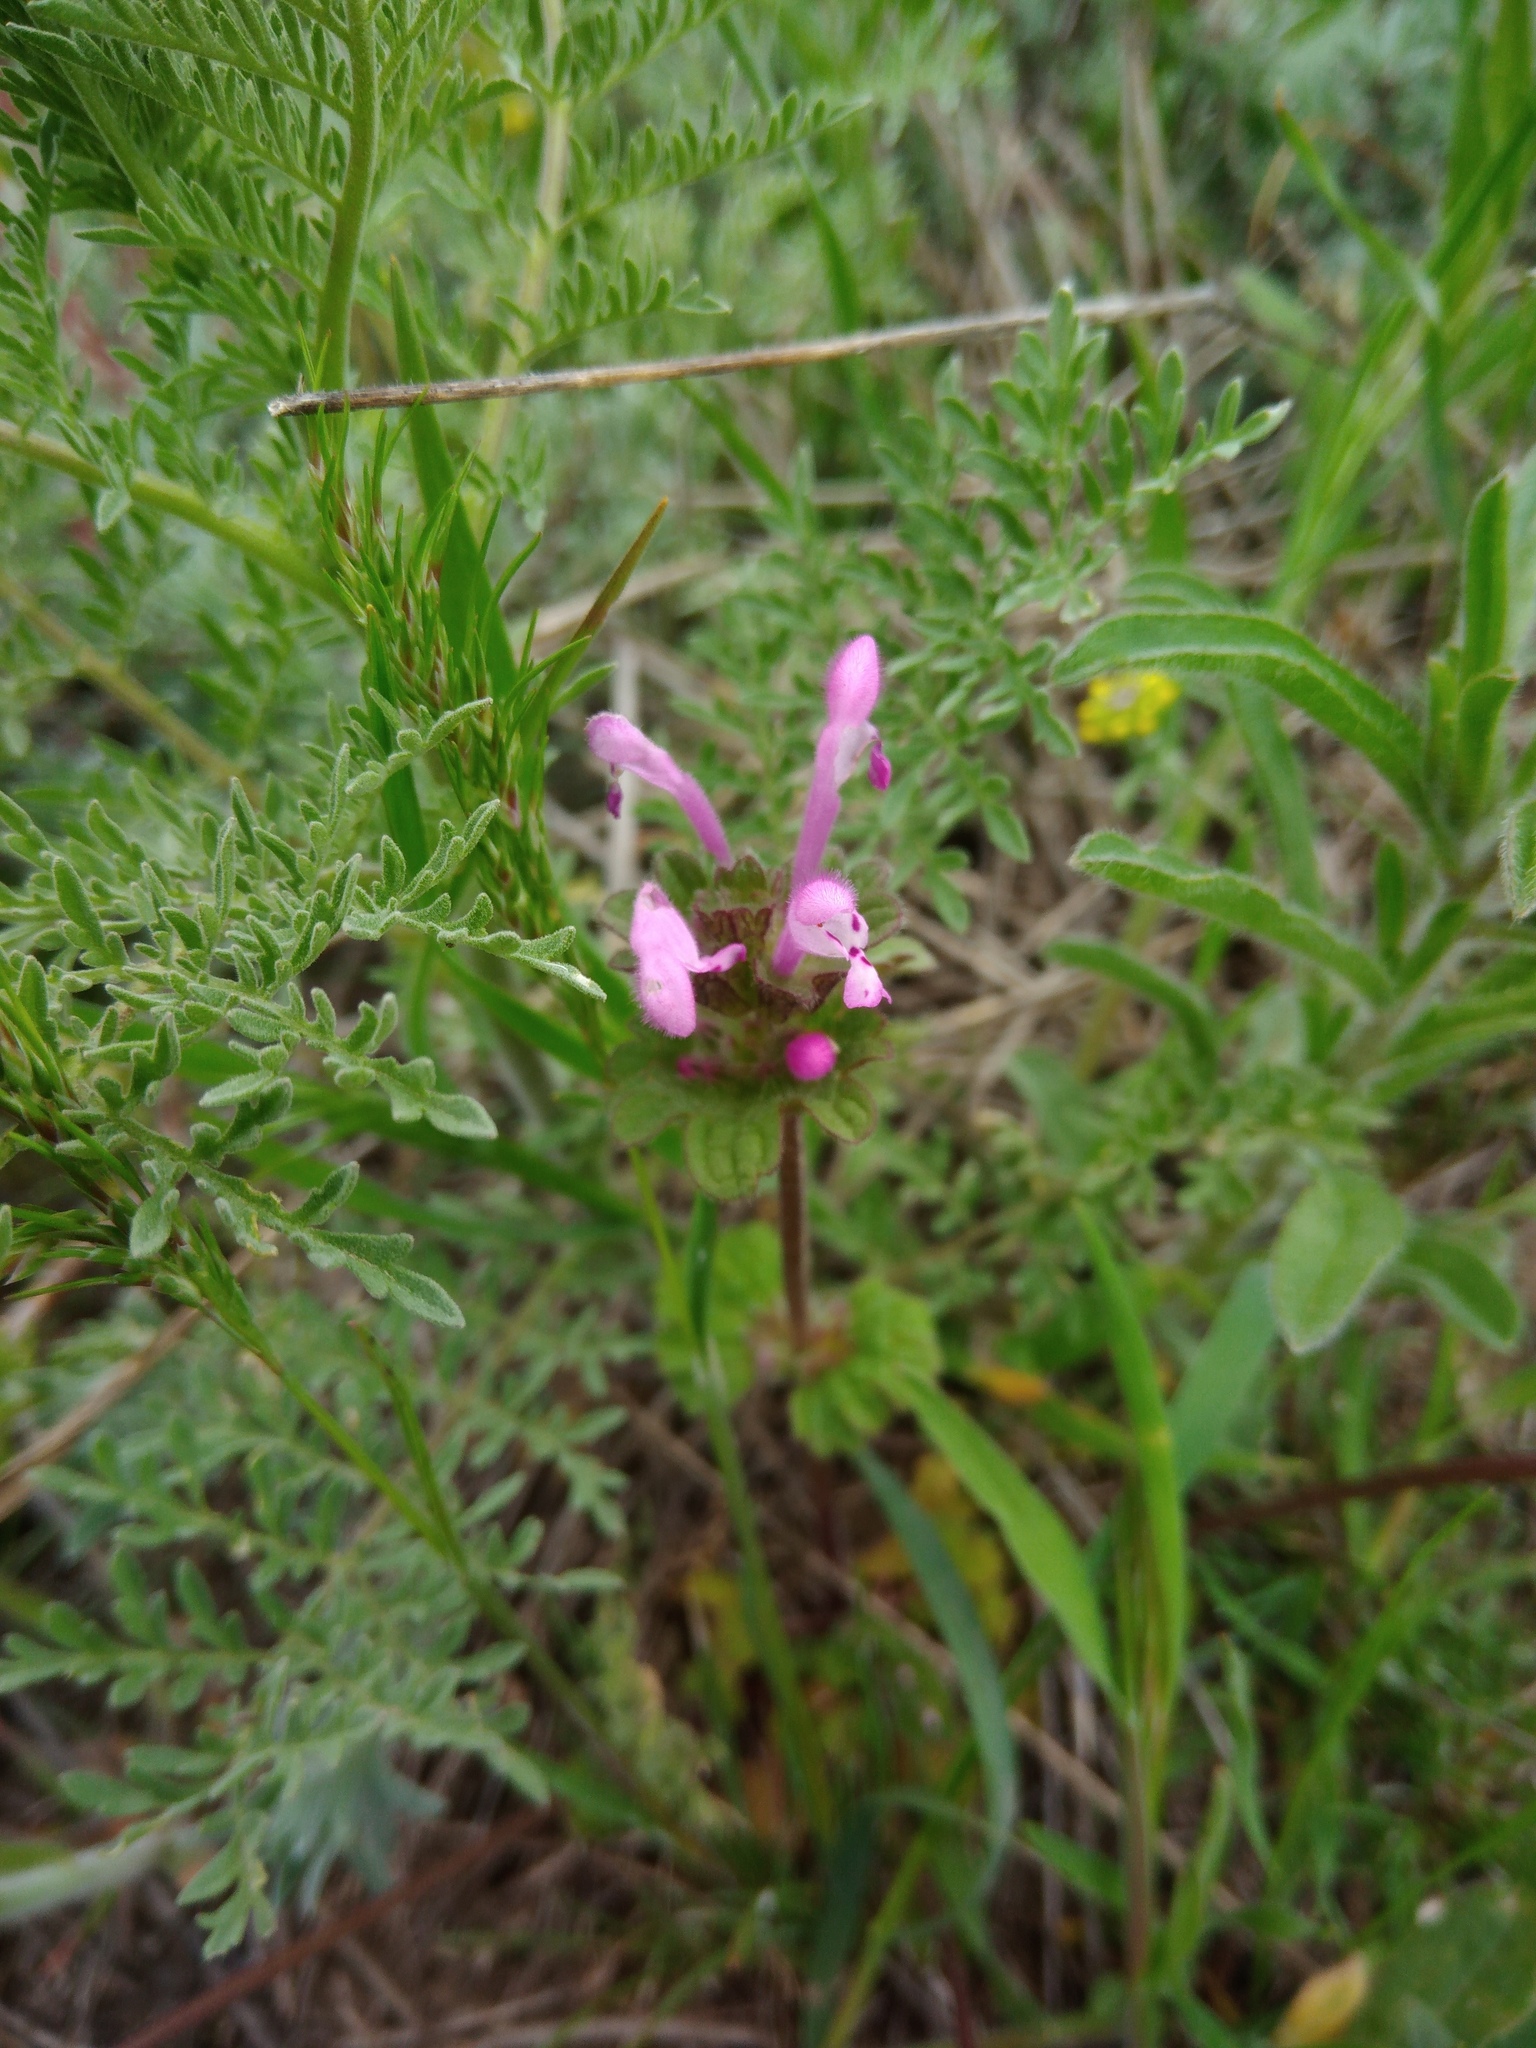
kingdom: Plantae
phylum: Tracheophyta
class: Magnoliopsida
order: Lamiales
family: Lamiaceae
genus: Lamium
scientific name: Lamium amplexicaule
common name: Henbit dead-nettle
